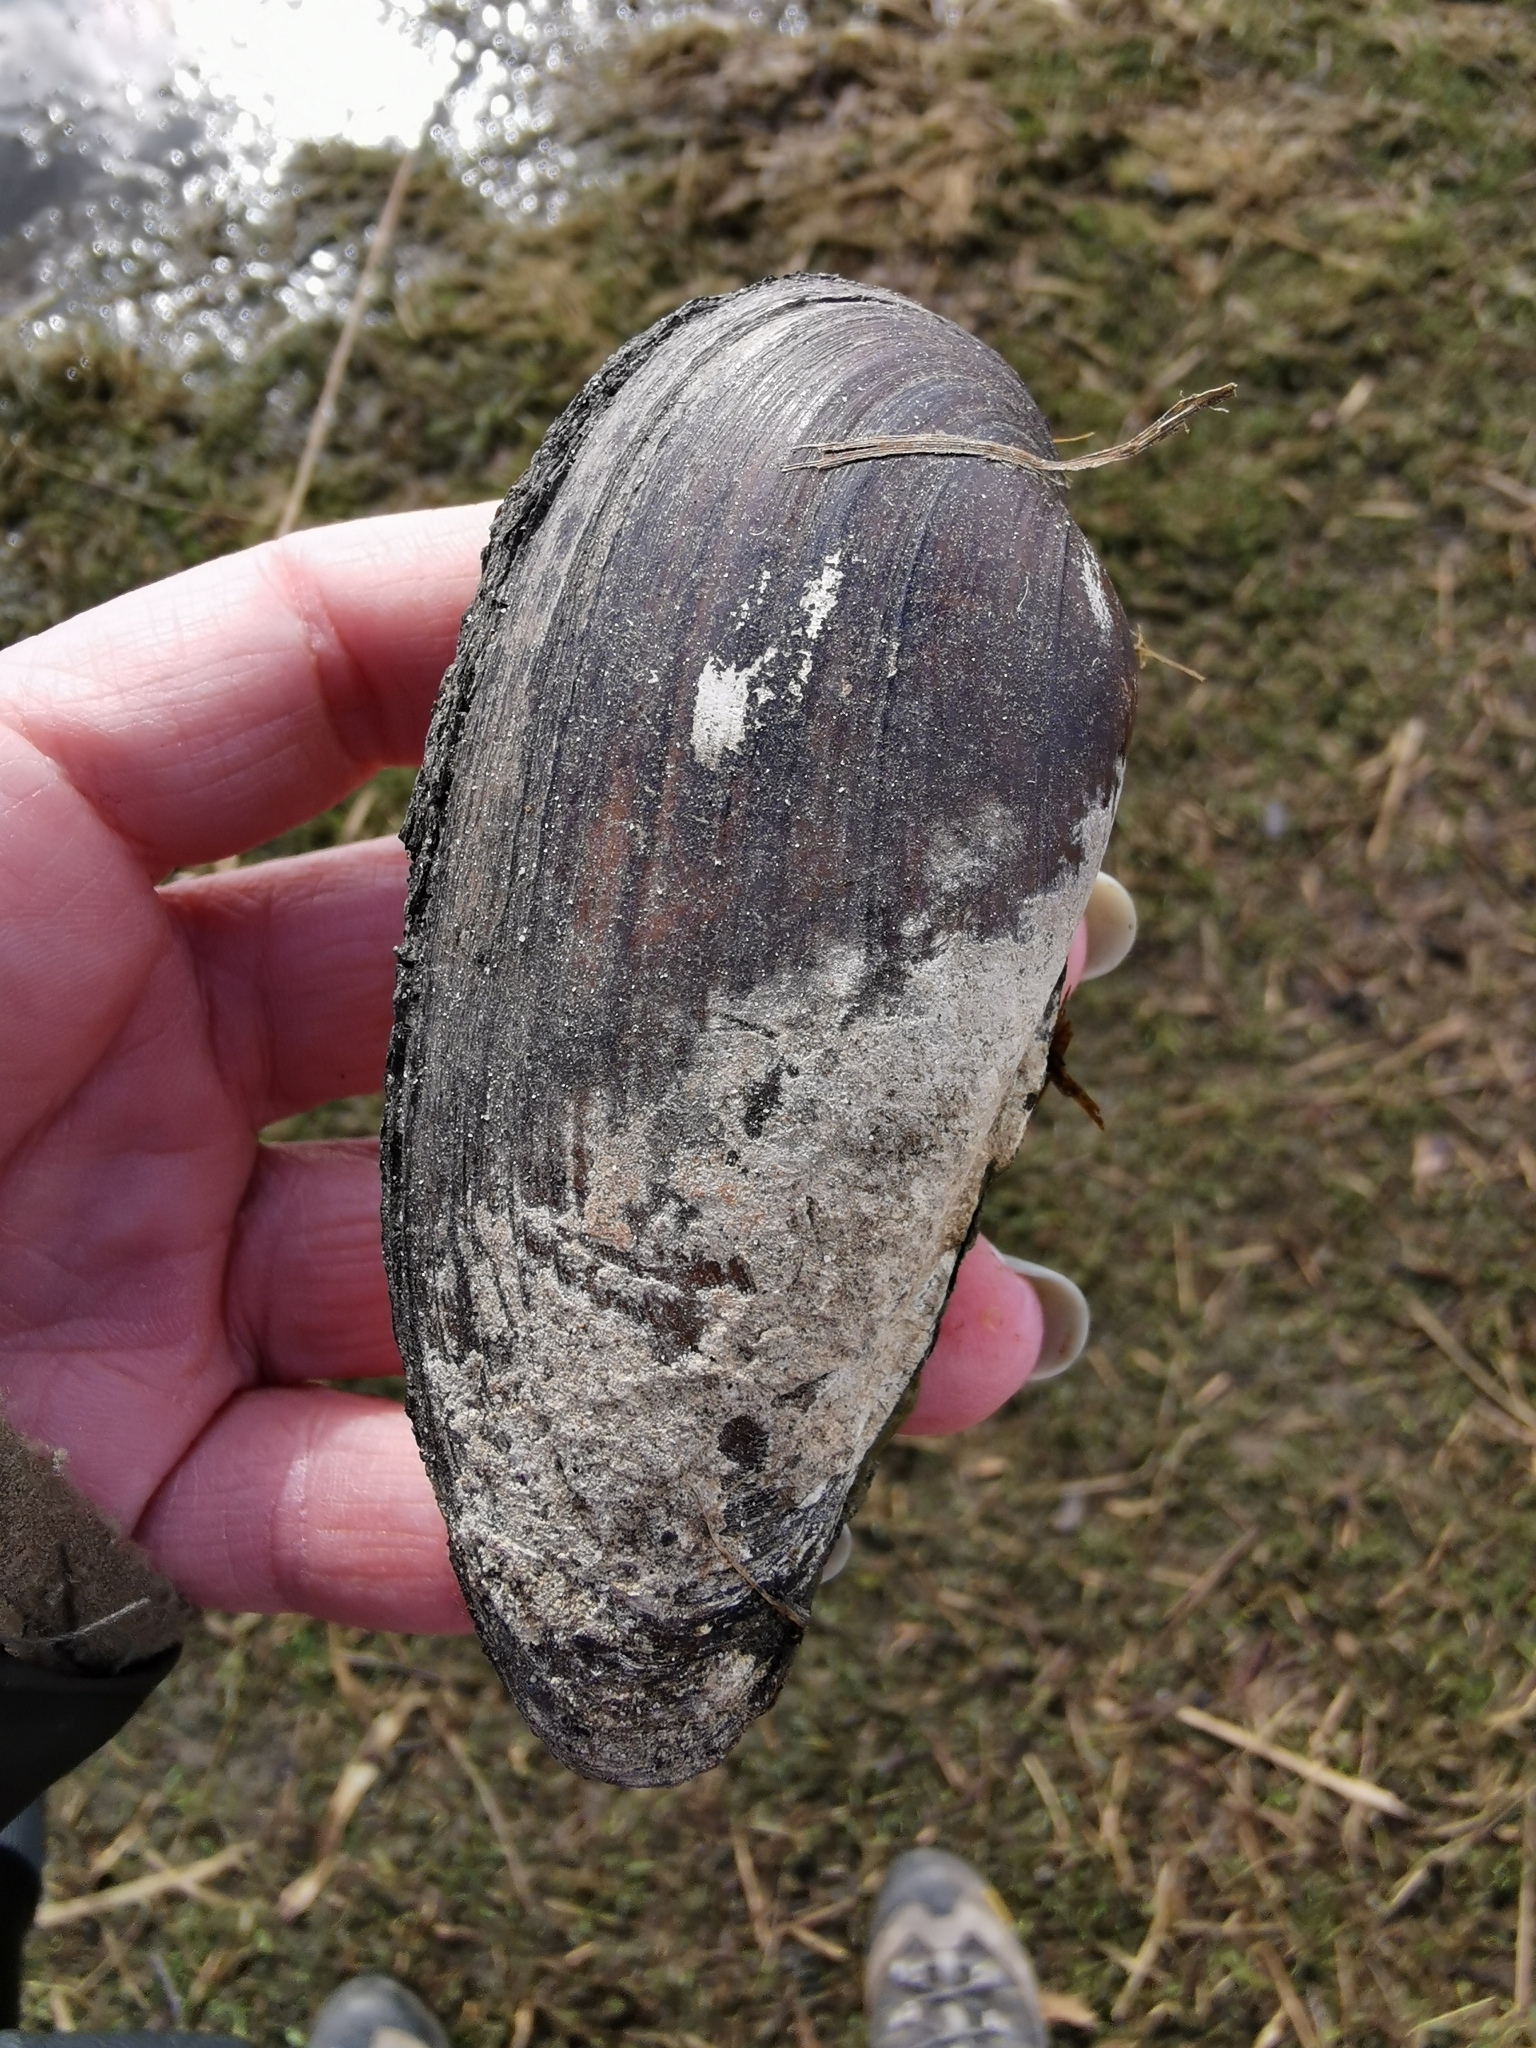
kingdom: Animalia
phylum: Mollusca
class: Bivalvia
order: Unionida
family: Unionidae
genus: Unio
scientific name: Unio pictorum
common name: Painter's mussel
